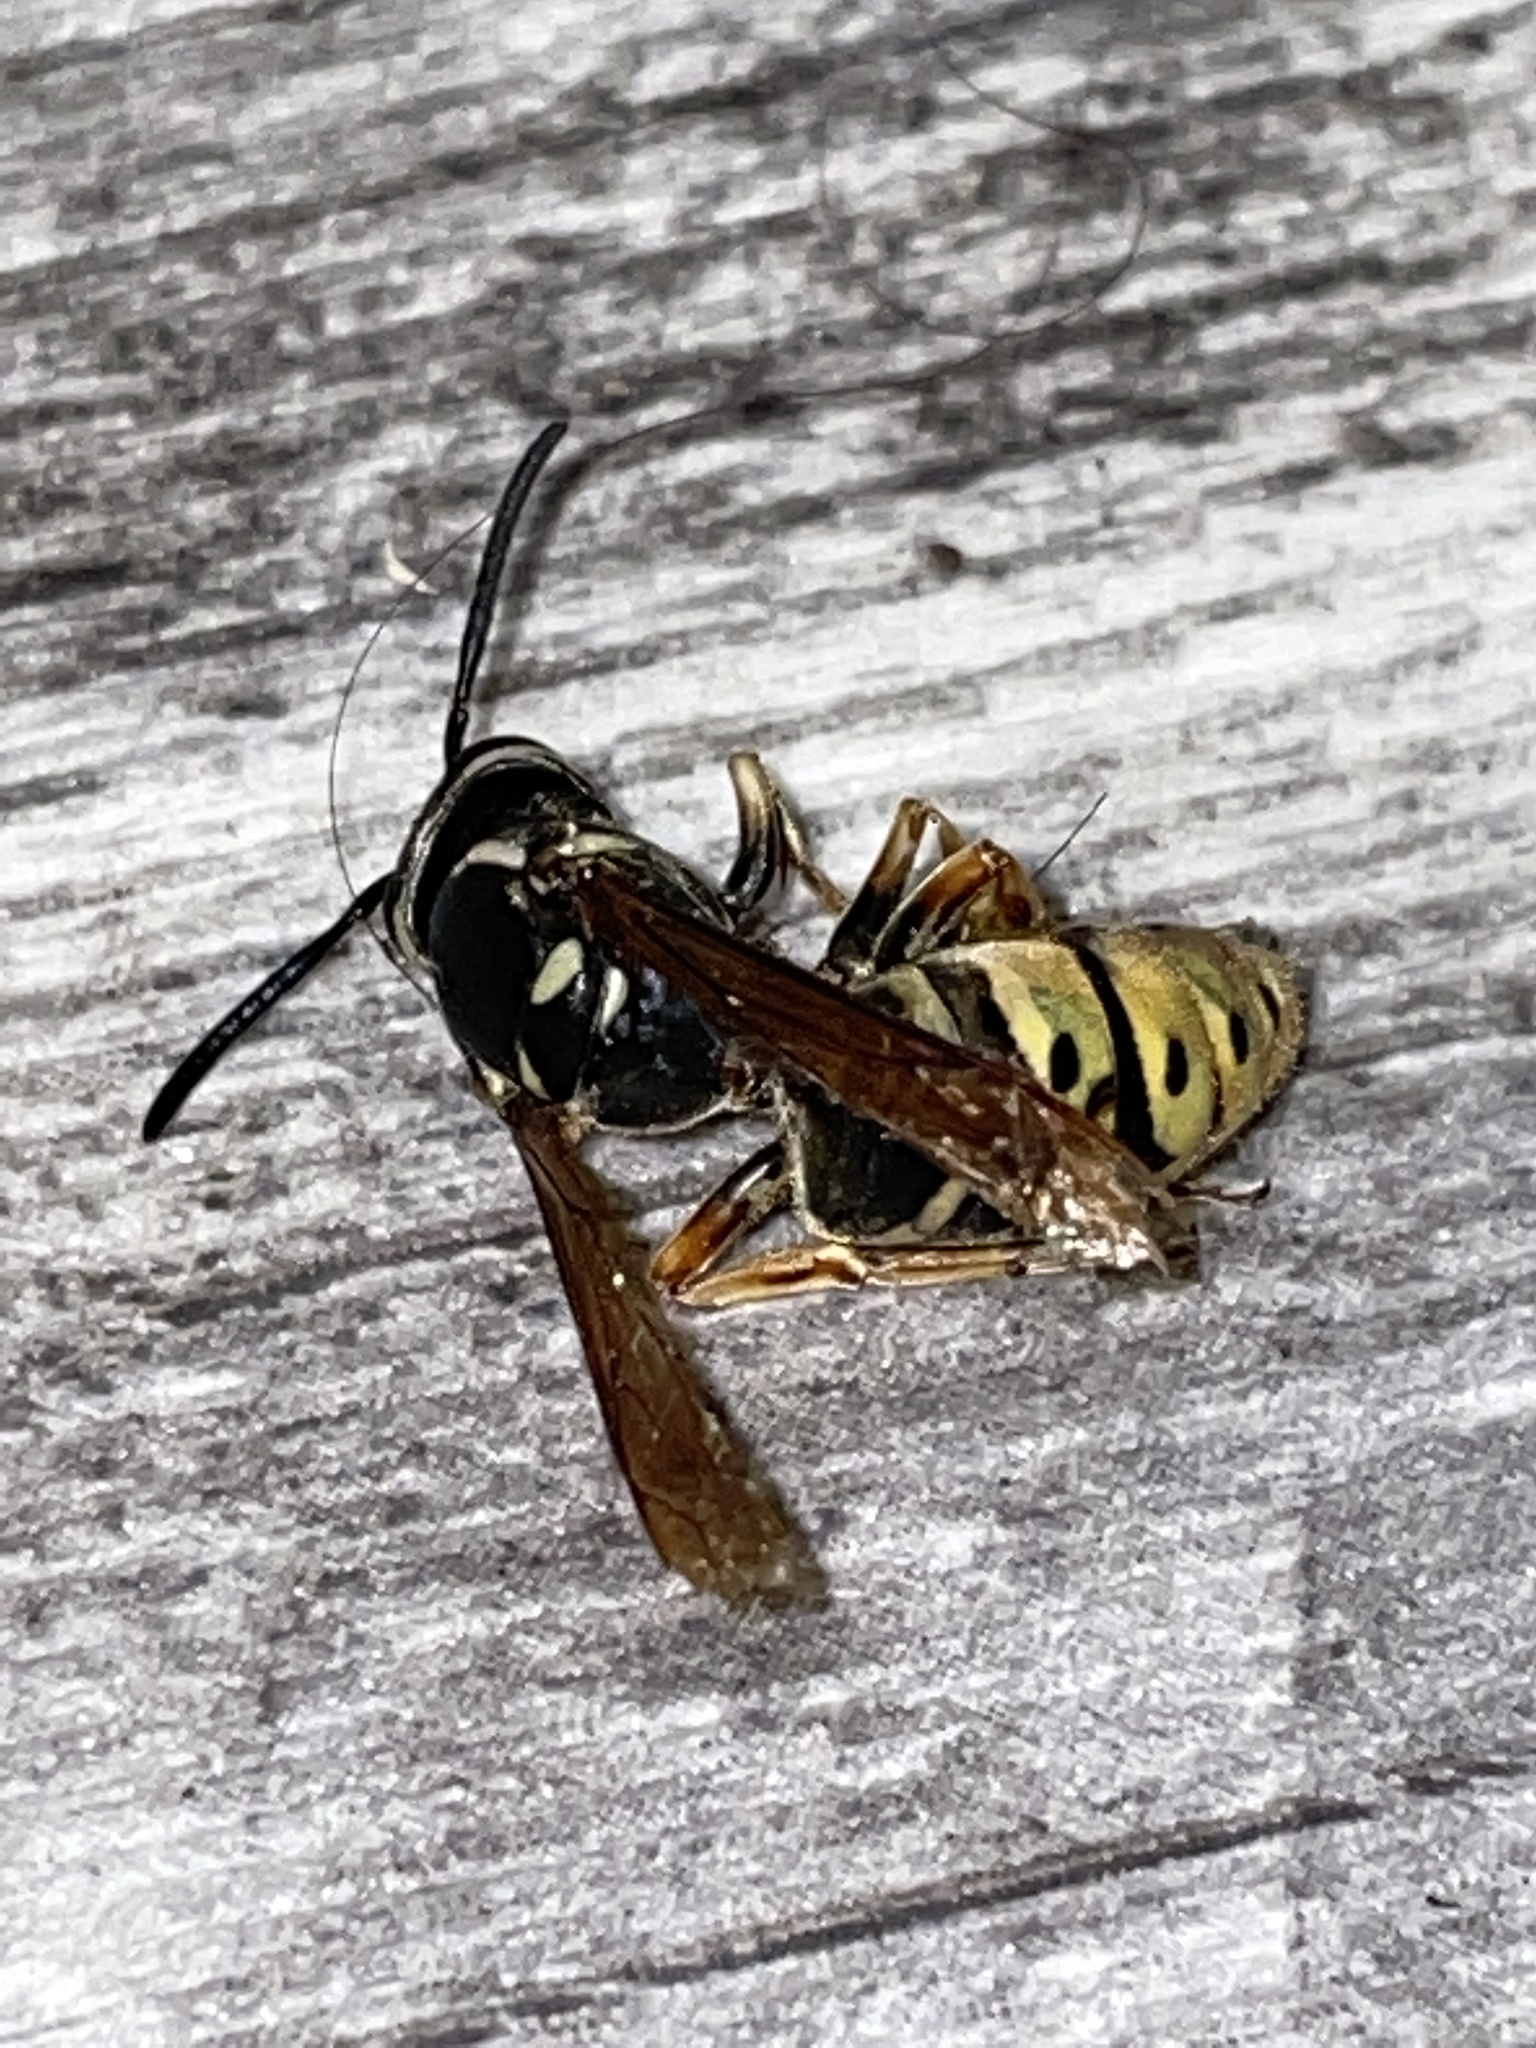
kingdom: Animalia
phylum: Arthropoda
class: Insecta
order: Hymenoptera
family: Vespidae
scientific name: Vespidae
